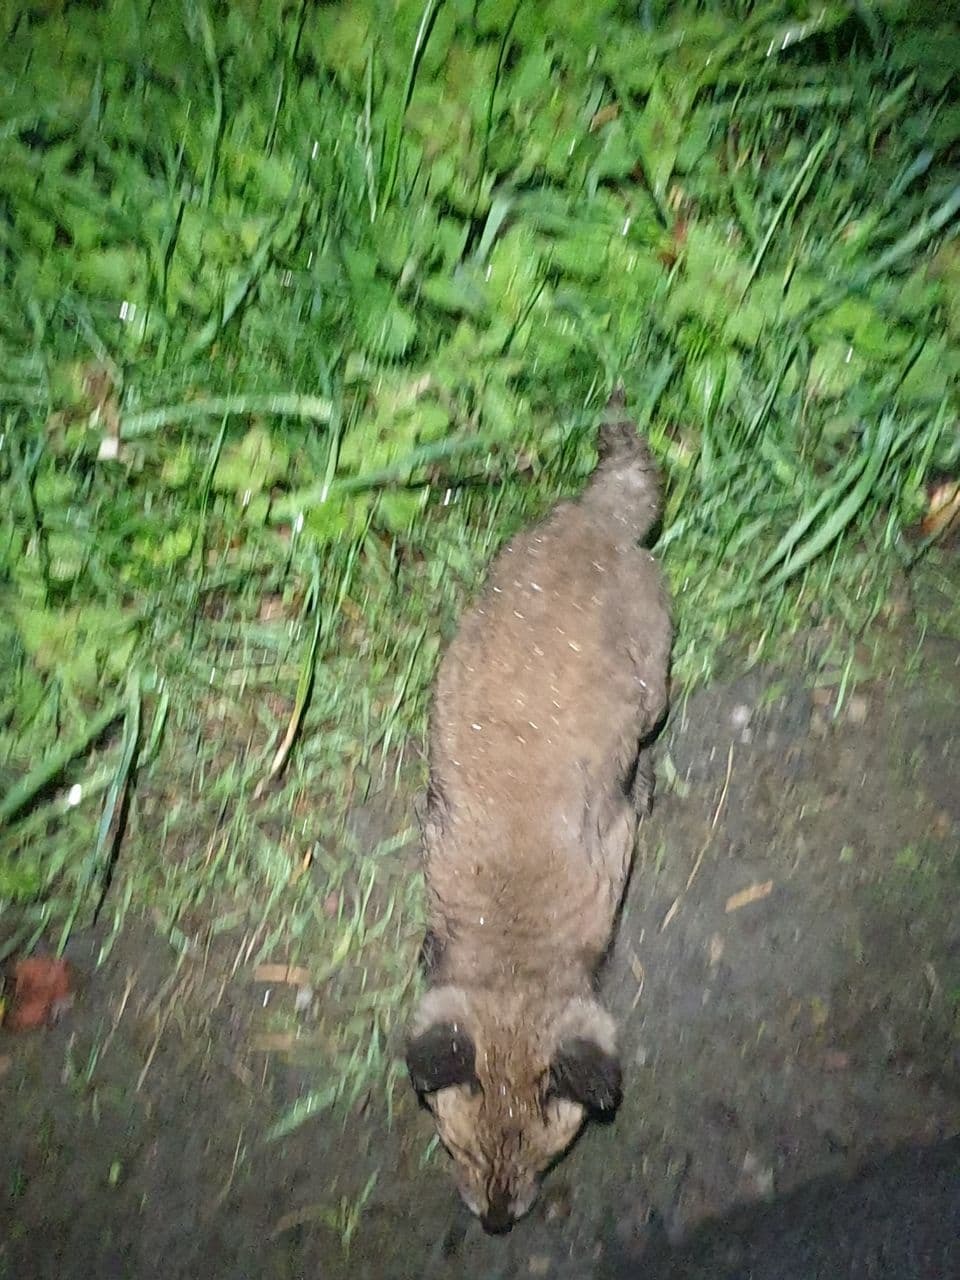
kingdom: Animalia
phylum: Chordata
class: Mammalia
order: Carnivora
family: Canidae
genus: Vulpes
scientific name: Vulpes vulpes
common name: Red fox
